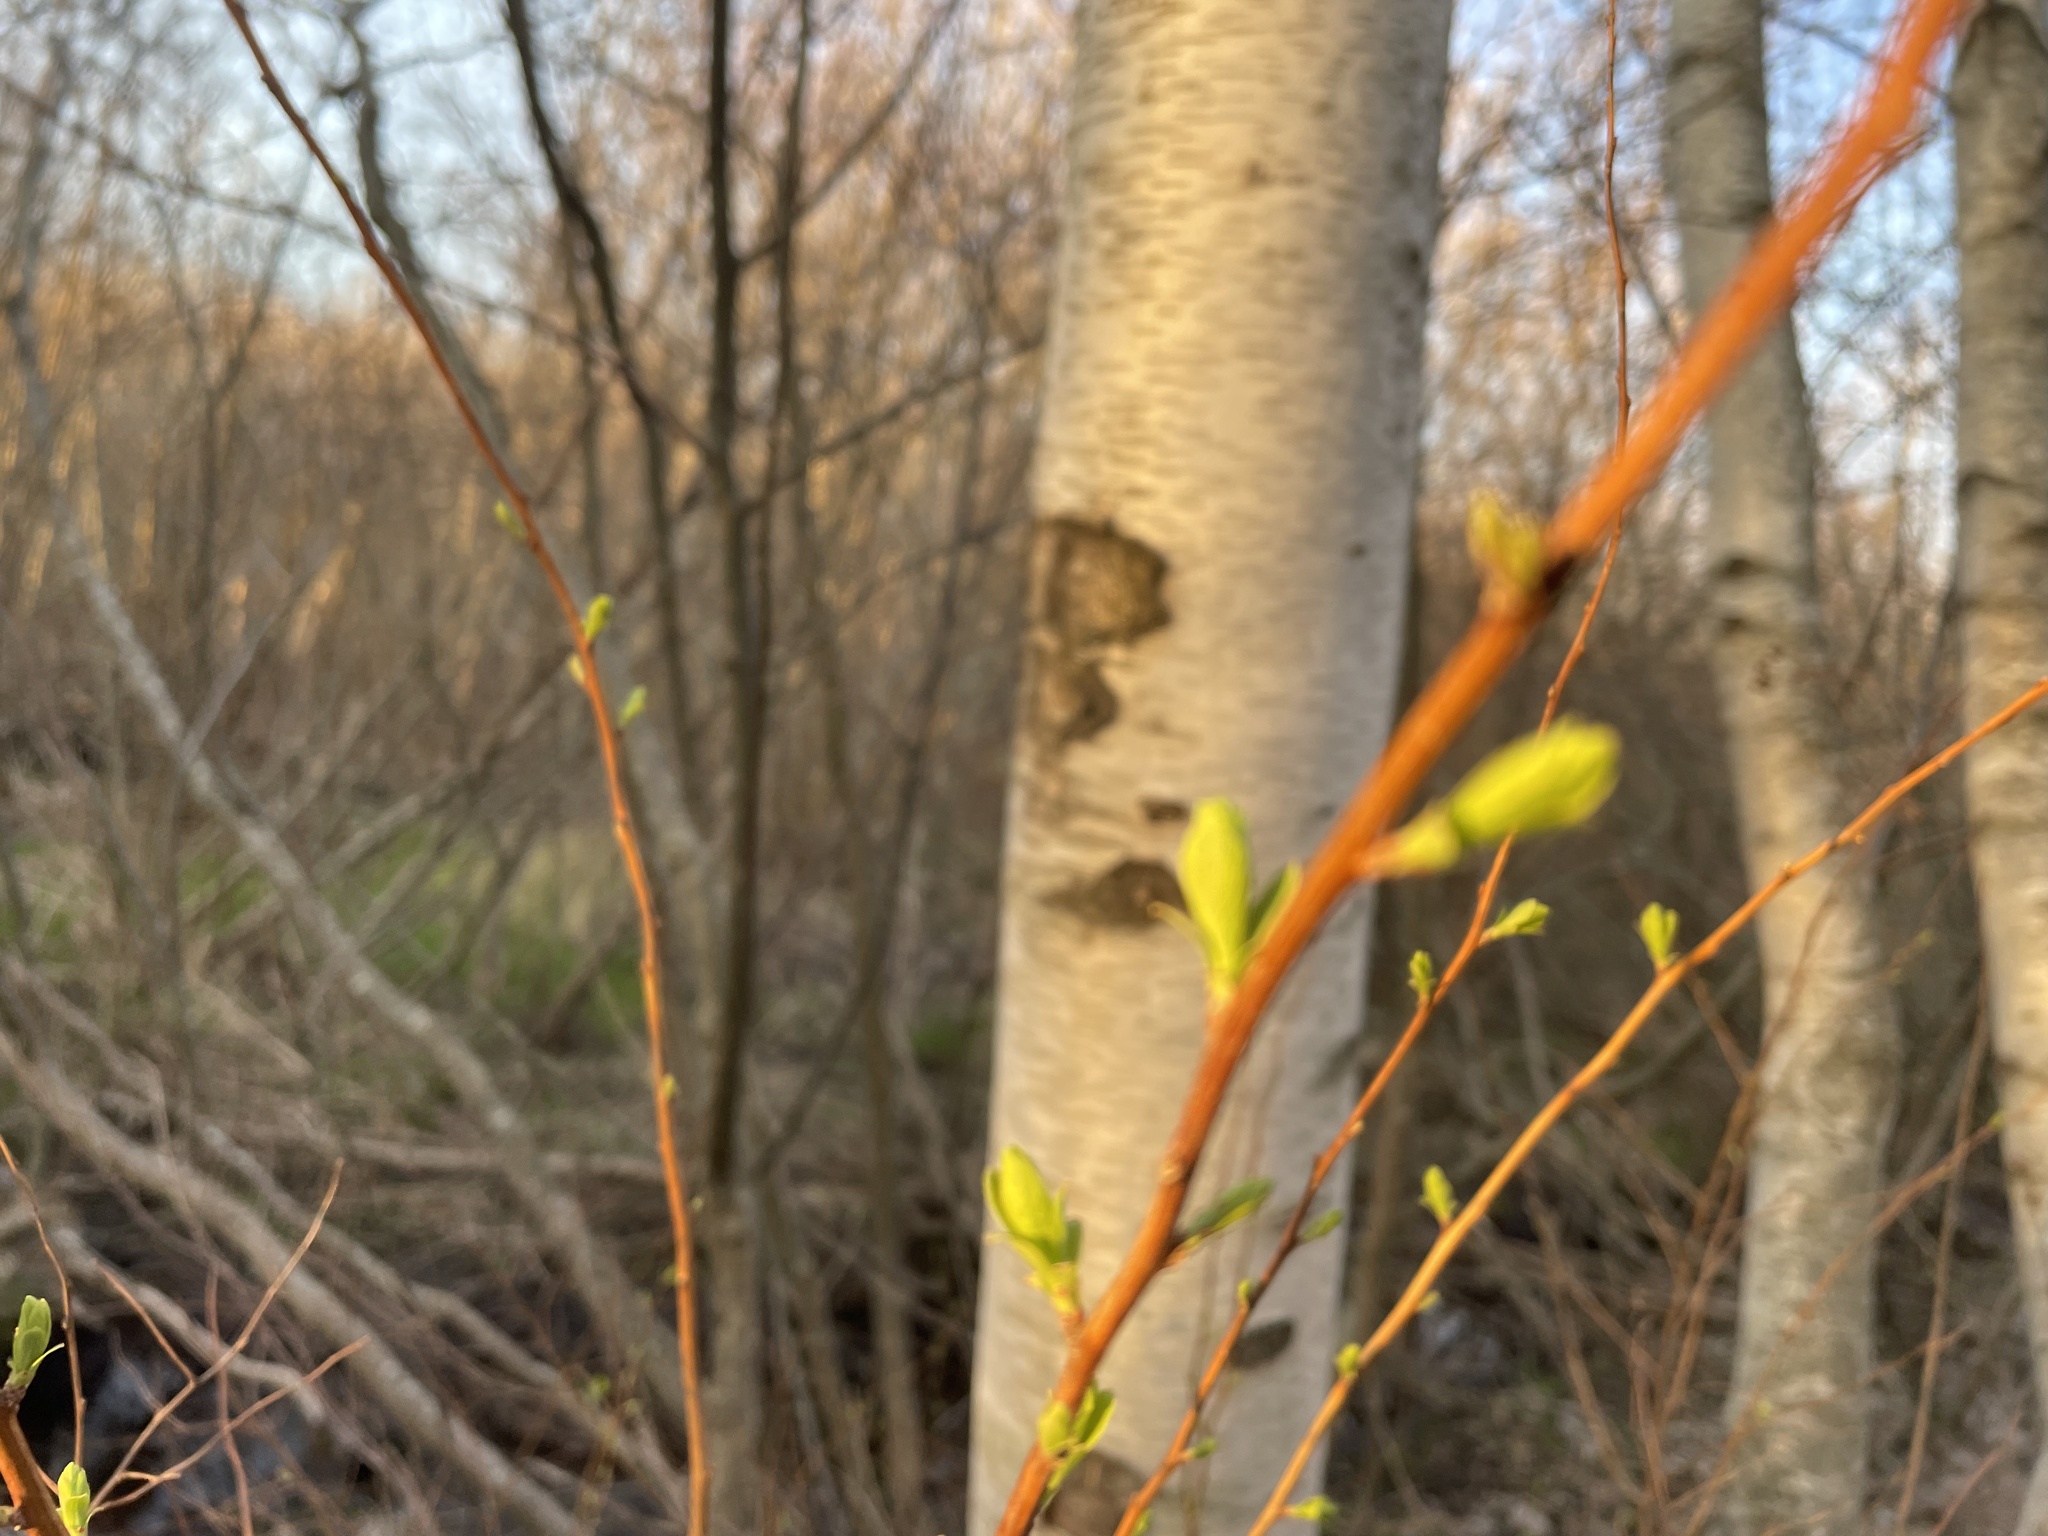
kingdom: Plantae
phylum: Tracheophyta
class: Magnoliopsida
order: Rosales
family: Rosaceae
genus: Spiraea
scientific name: Spiraea alba
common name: Pale bridewort
